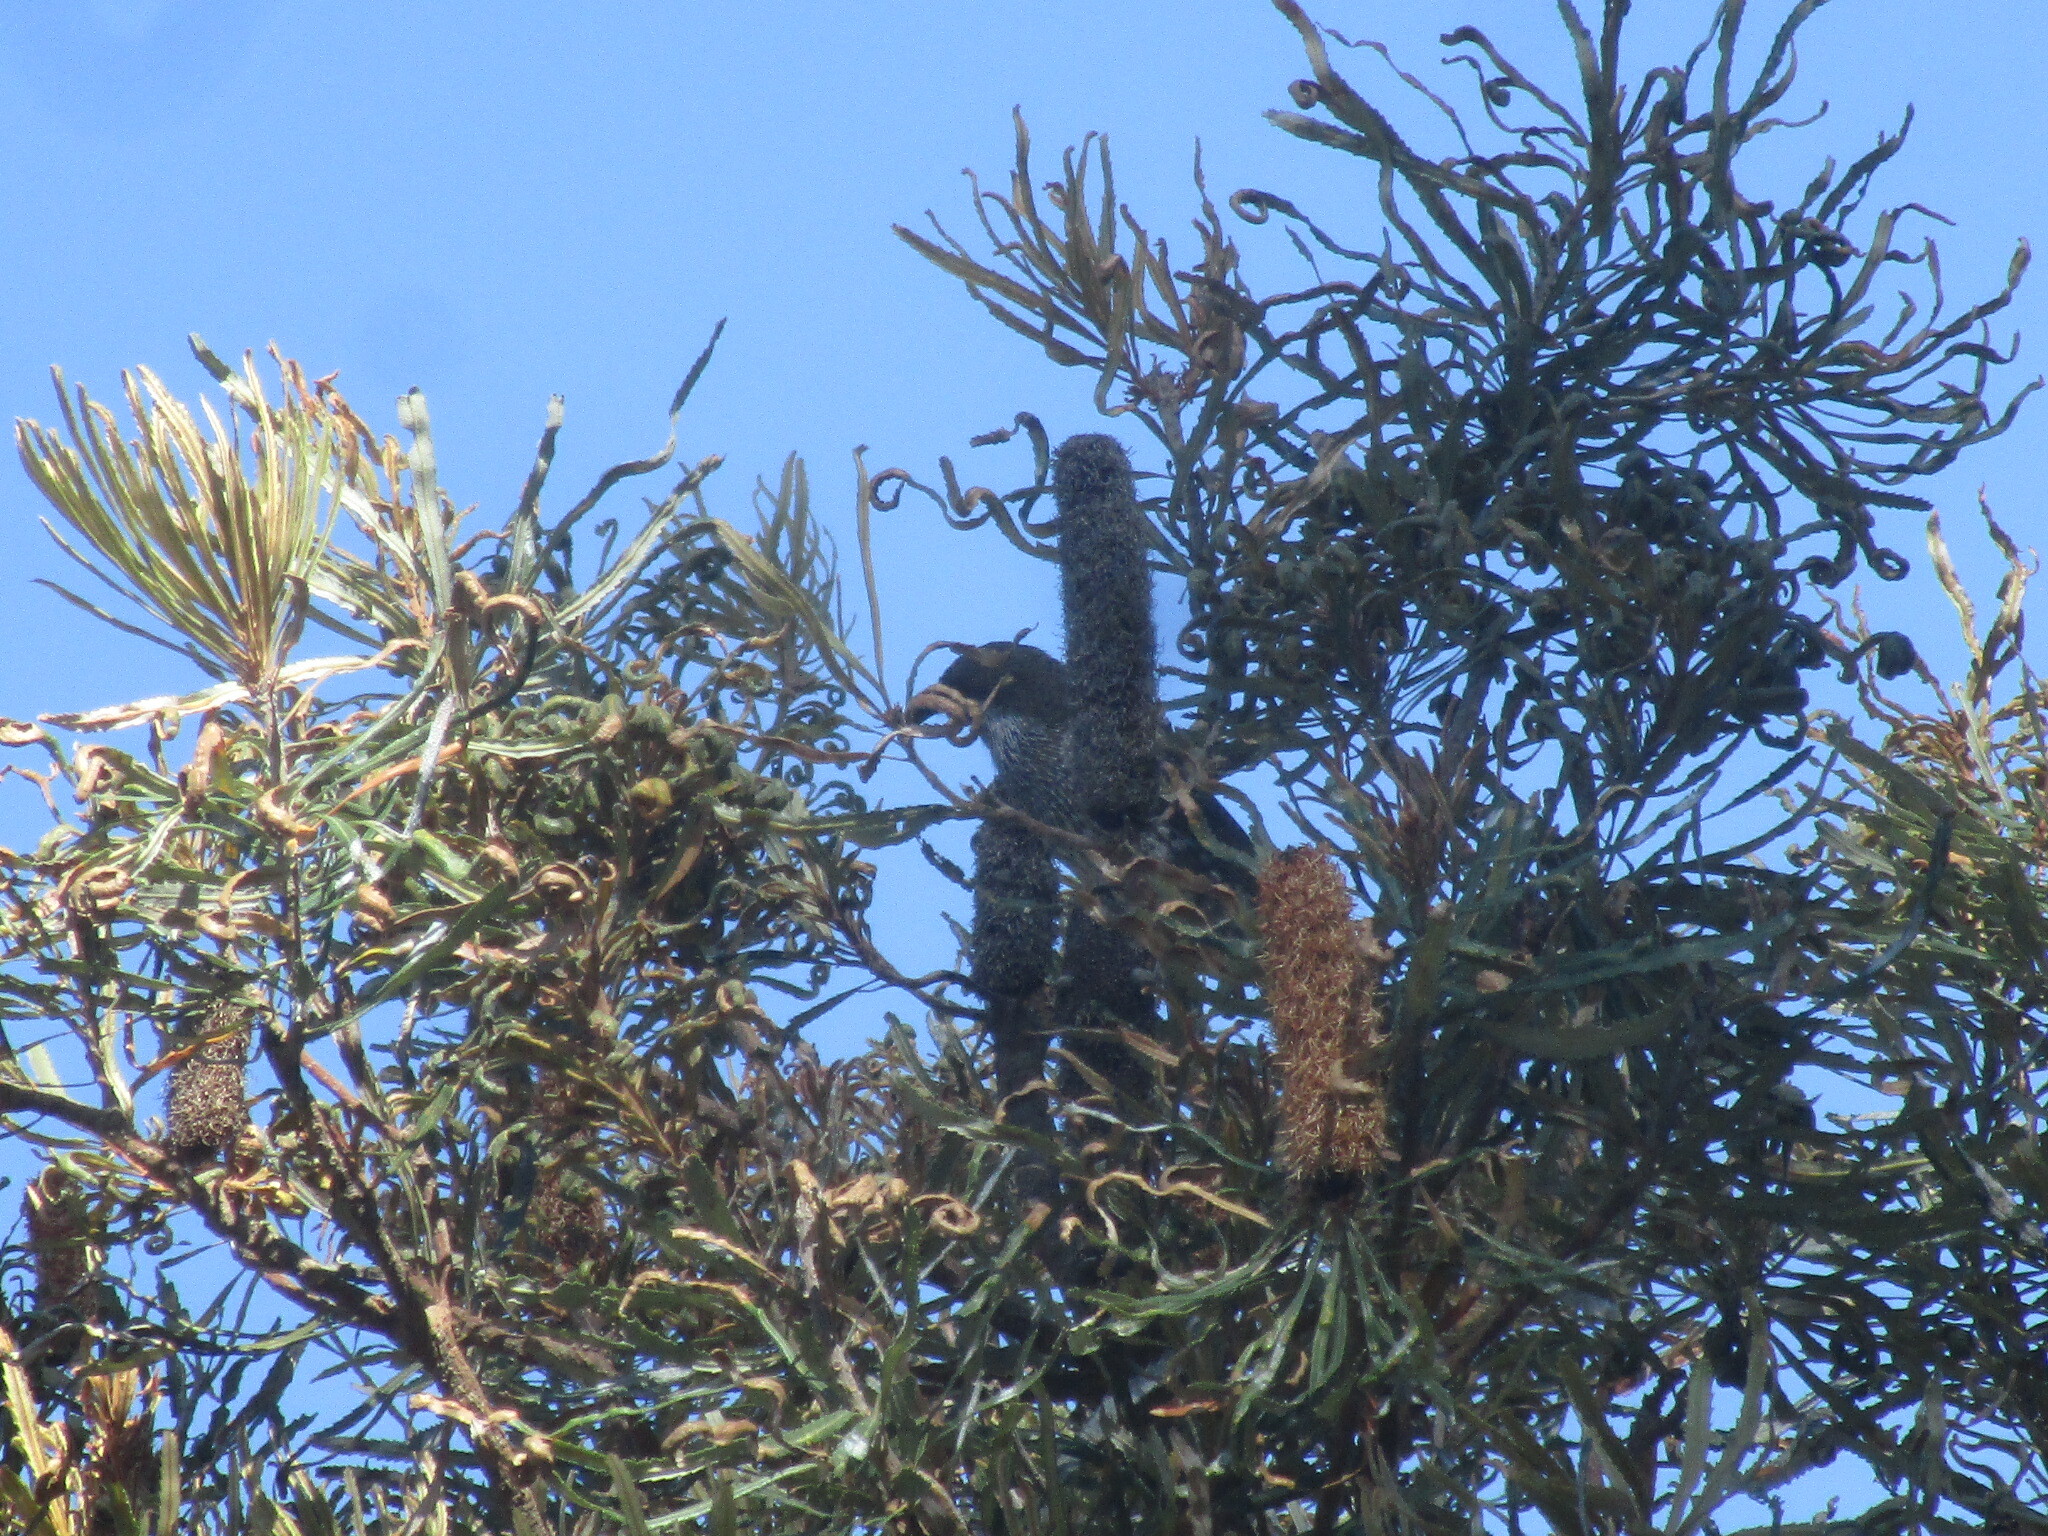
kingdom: Animalia
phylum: Chordata
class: Aves
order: Passeriformes
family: Meliphagidae
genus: Anthochaera
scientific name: Anthochaera lunulata
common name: Western wattlebird
